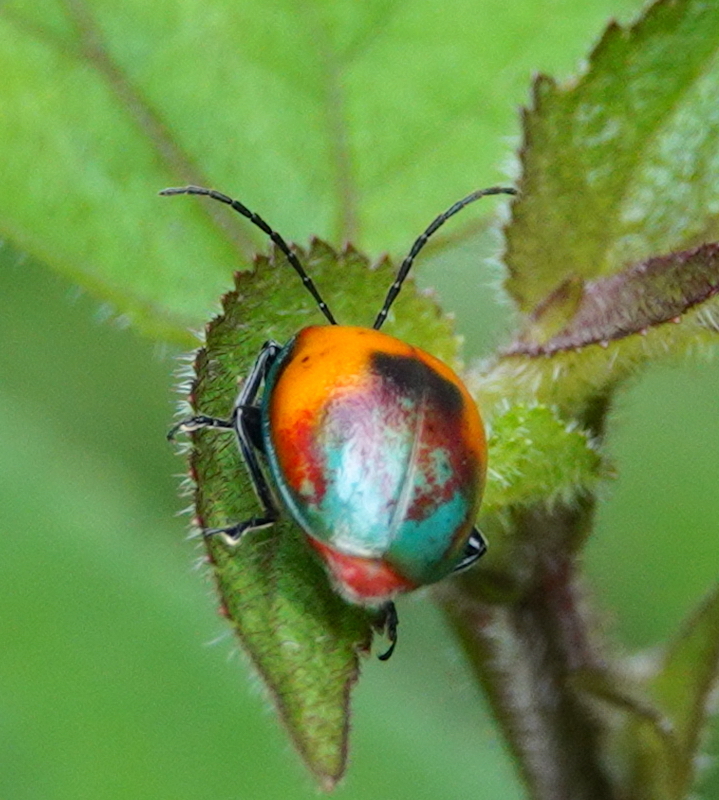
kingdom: Animalia
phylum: Arthropoda
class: Insecta
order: Coleoptera
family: Chrysomelidae
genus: Aspicela
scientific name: Aspicela
